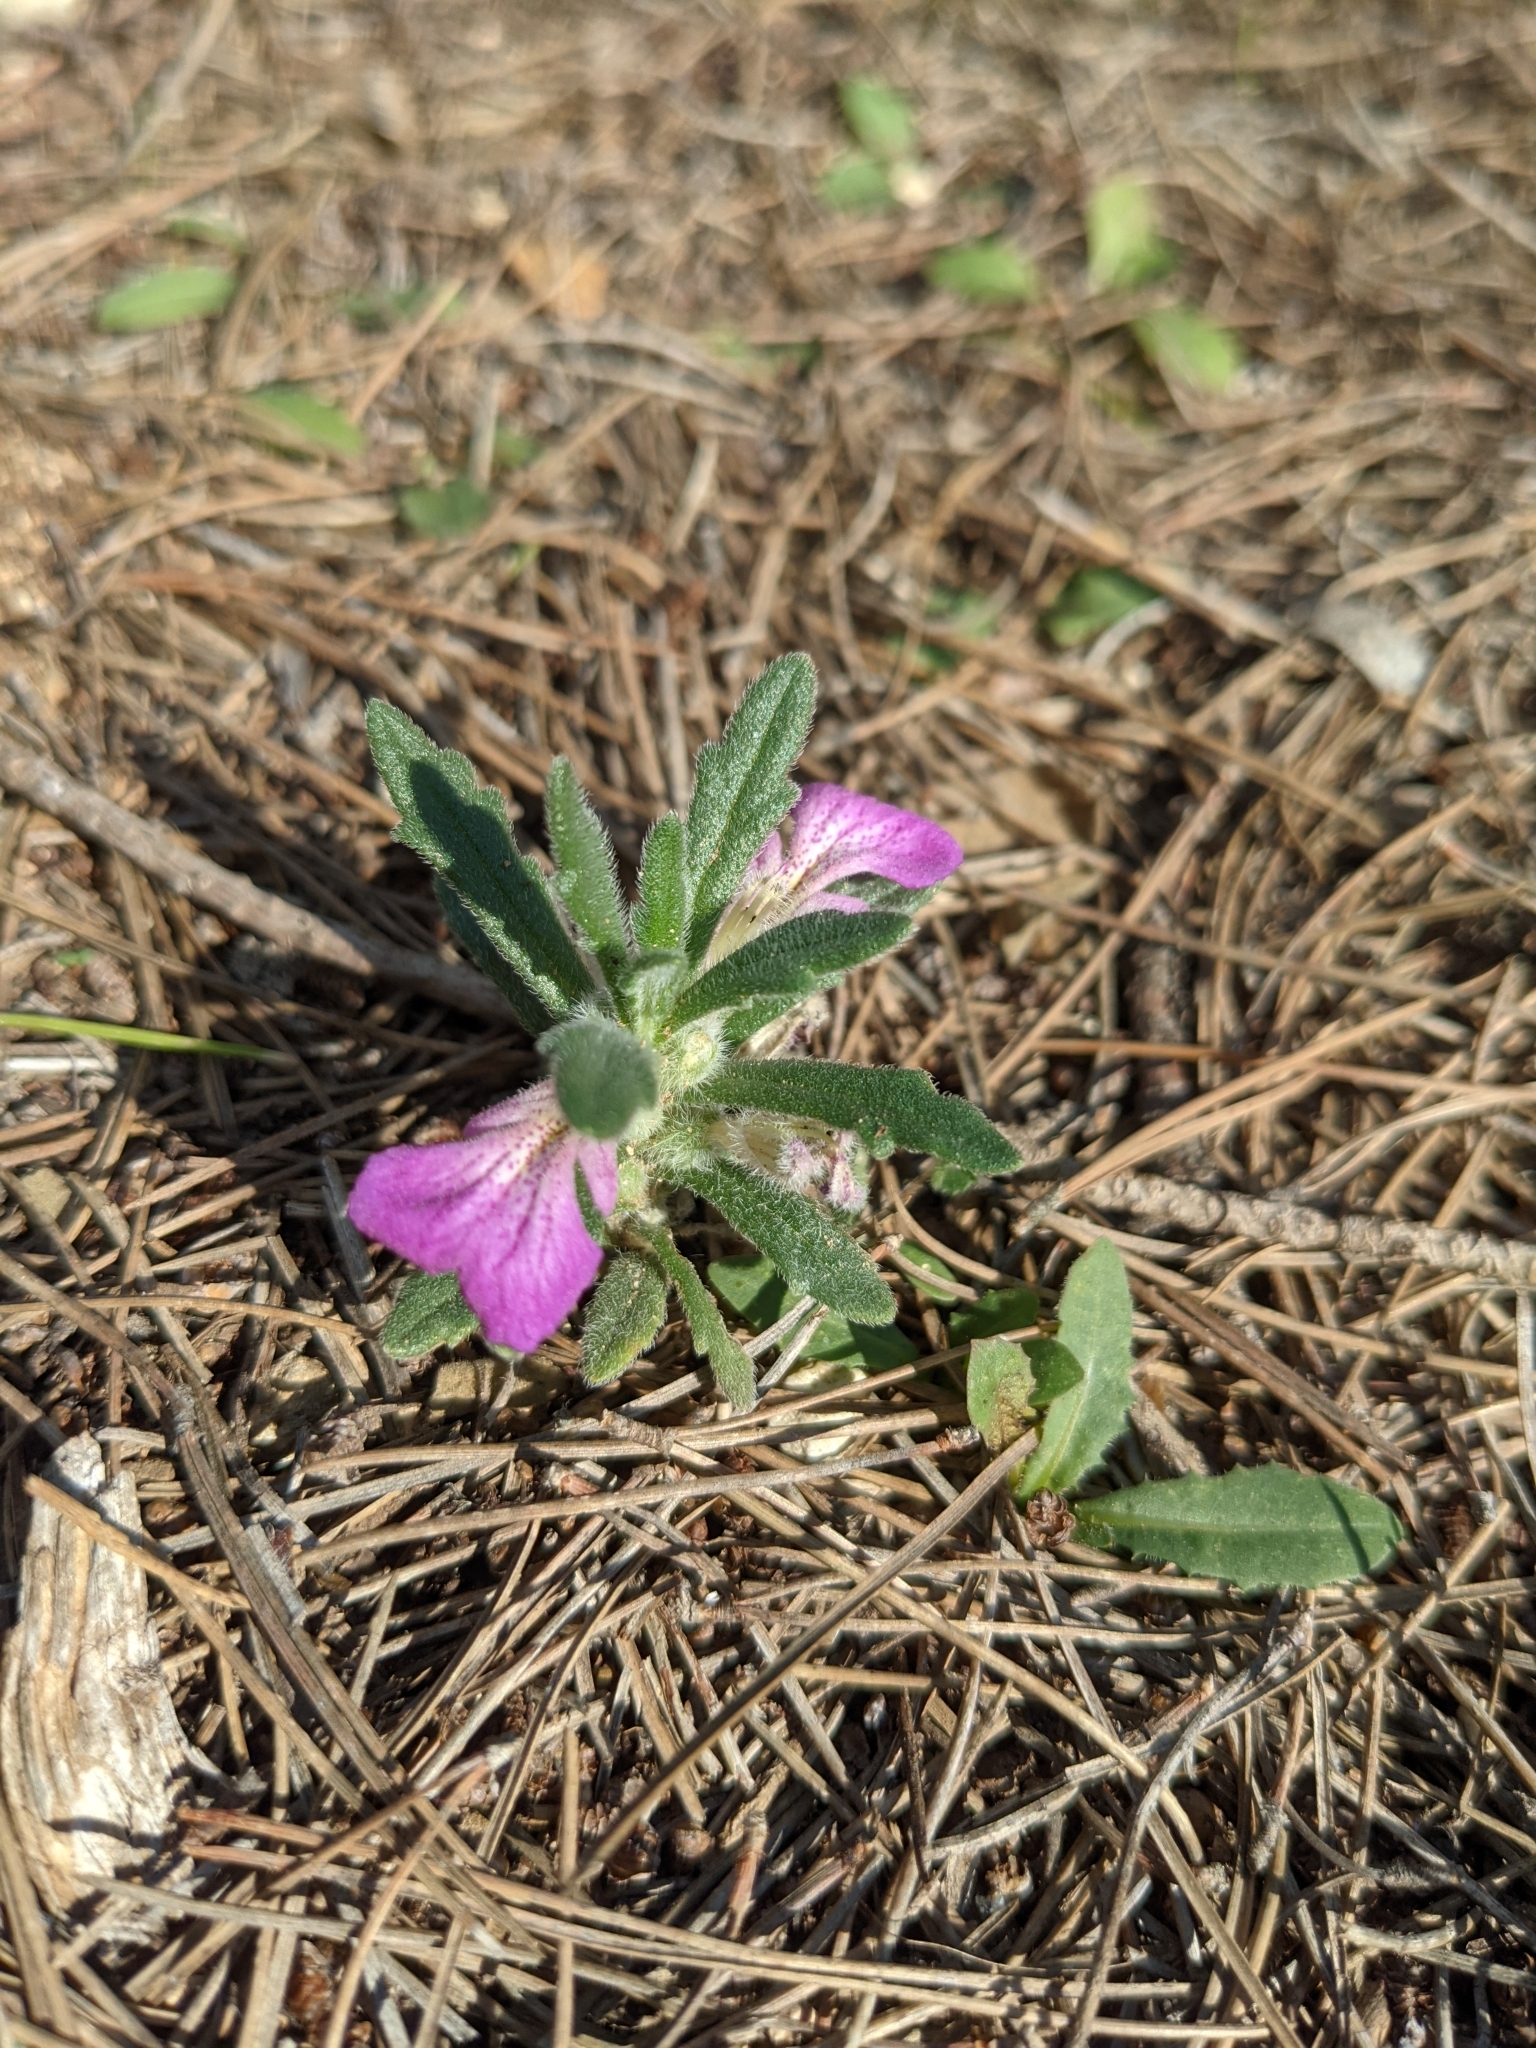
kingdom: Plantae
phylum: Tracheophyta
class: Magnoliopsida
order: Lamiales
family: Lamiaceae
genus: Ajuga
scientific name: Ajuga iva
